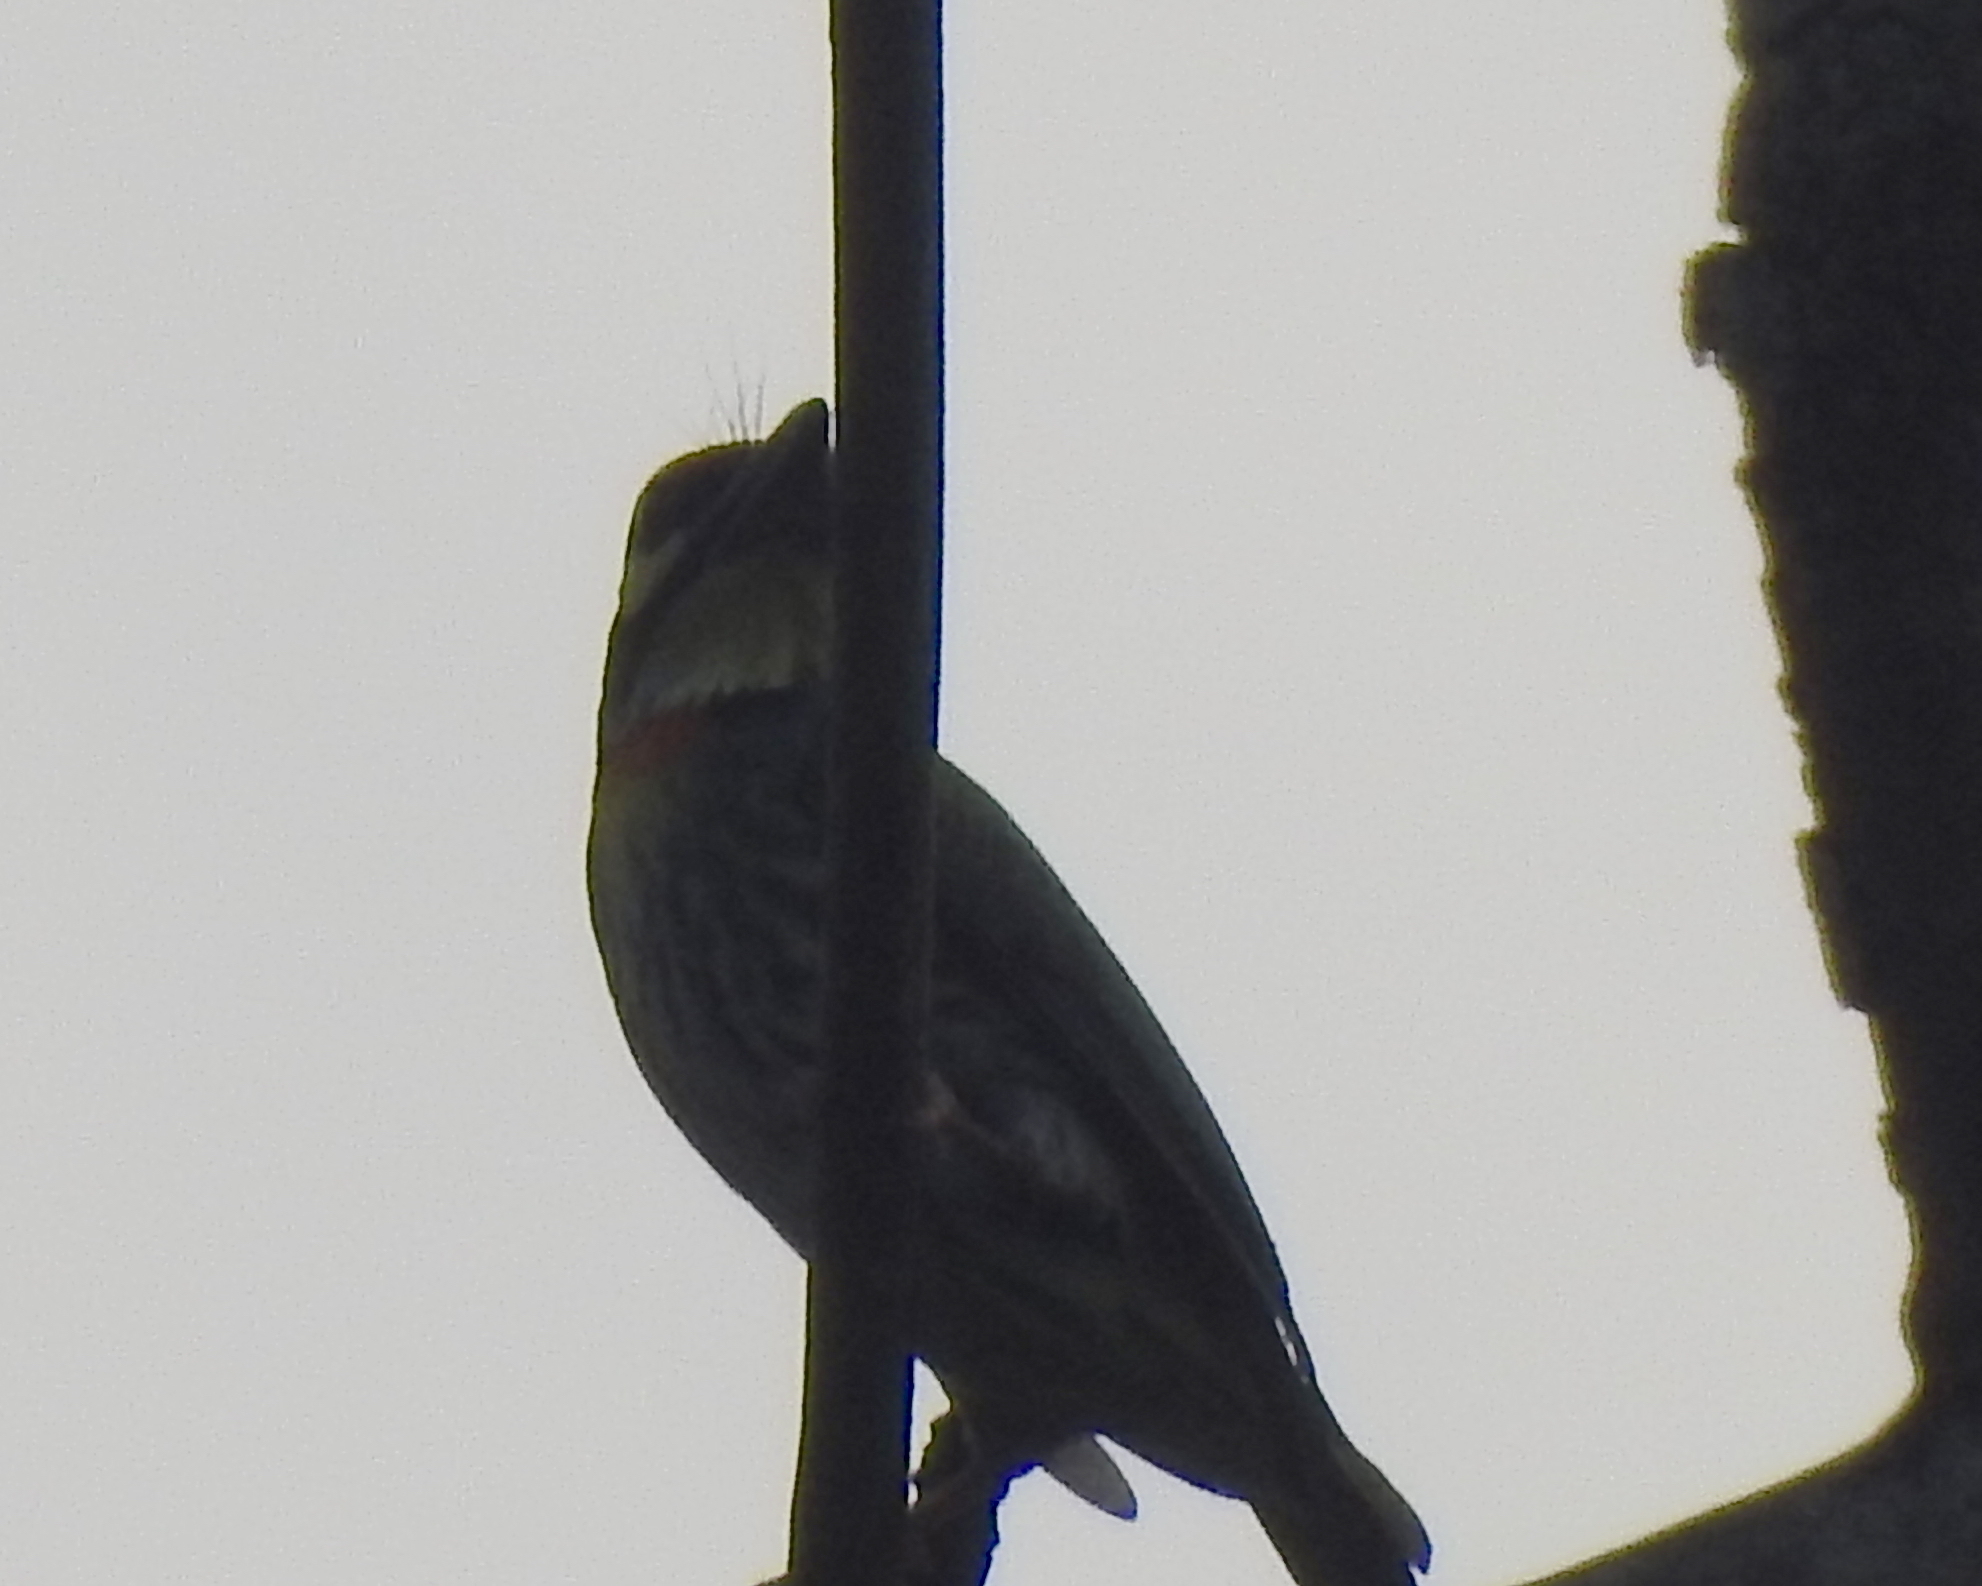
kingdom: Animalia
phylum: Chordata
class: Aves
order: Piciformes
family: Megalaimidae
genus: Psilopogon
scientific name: Psilopogon haemacephalus
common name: Coppersmith barbet
